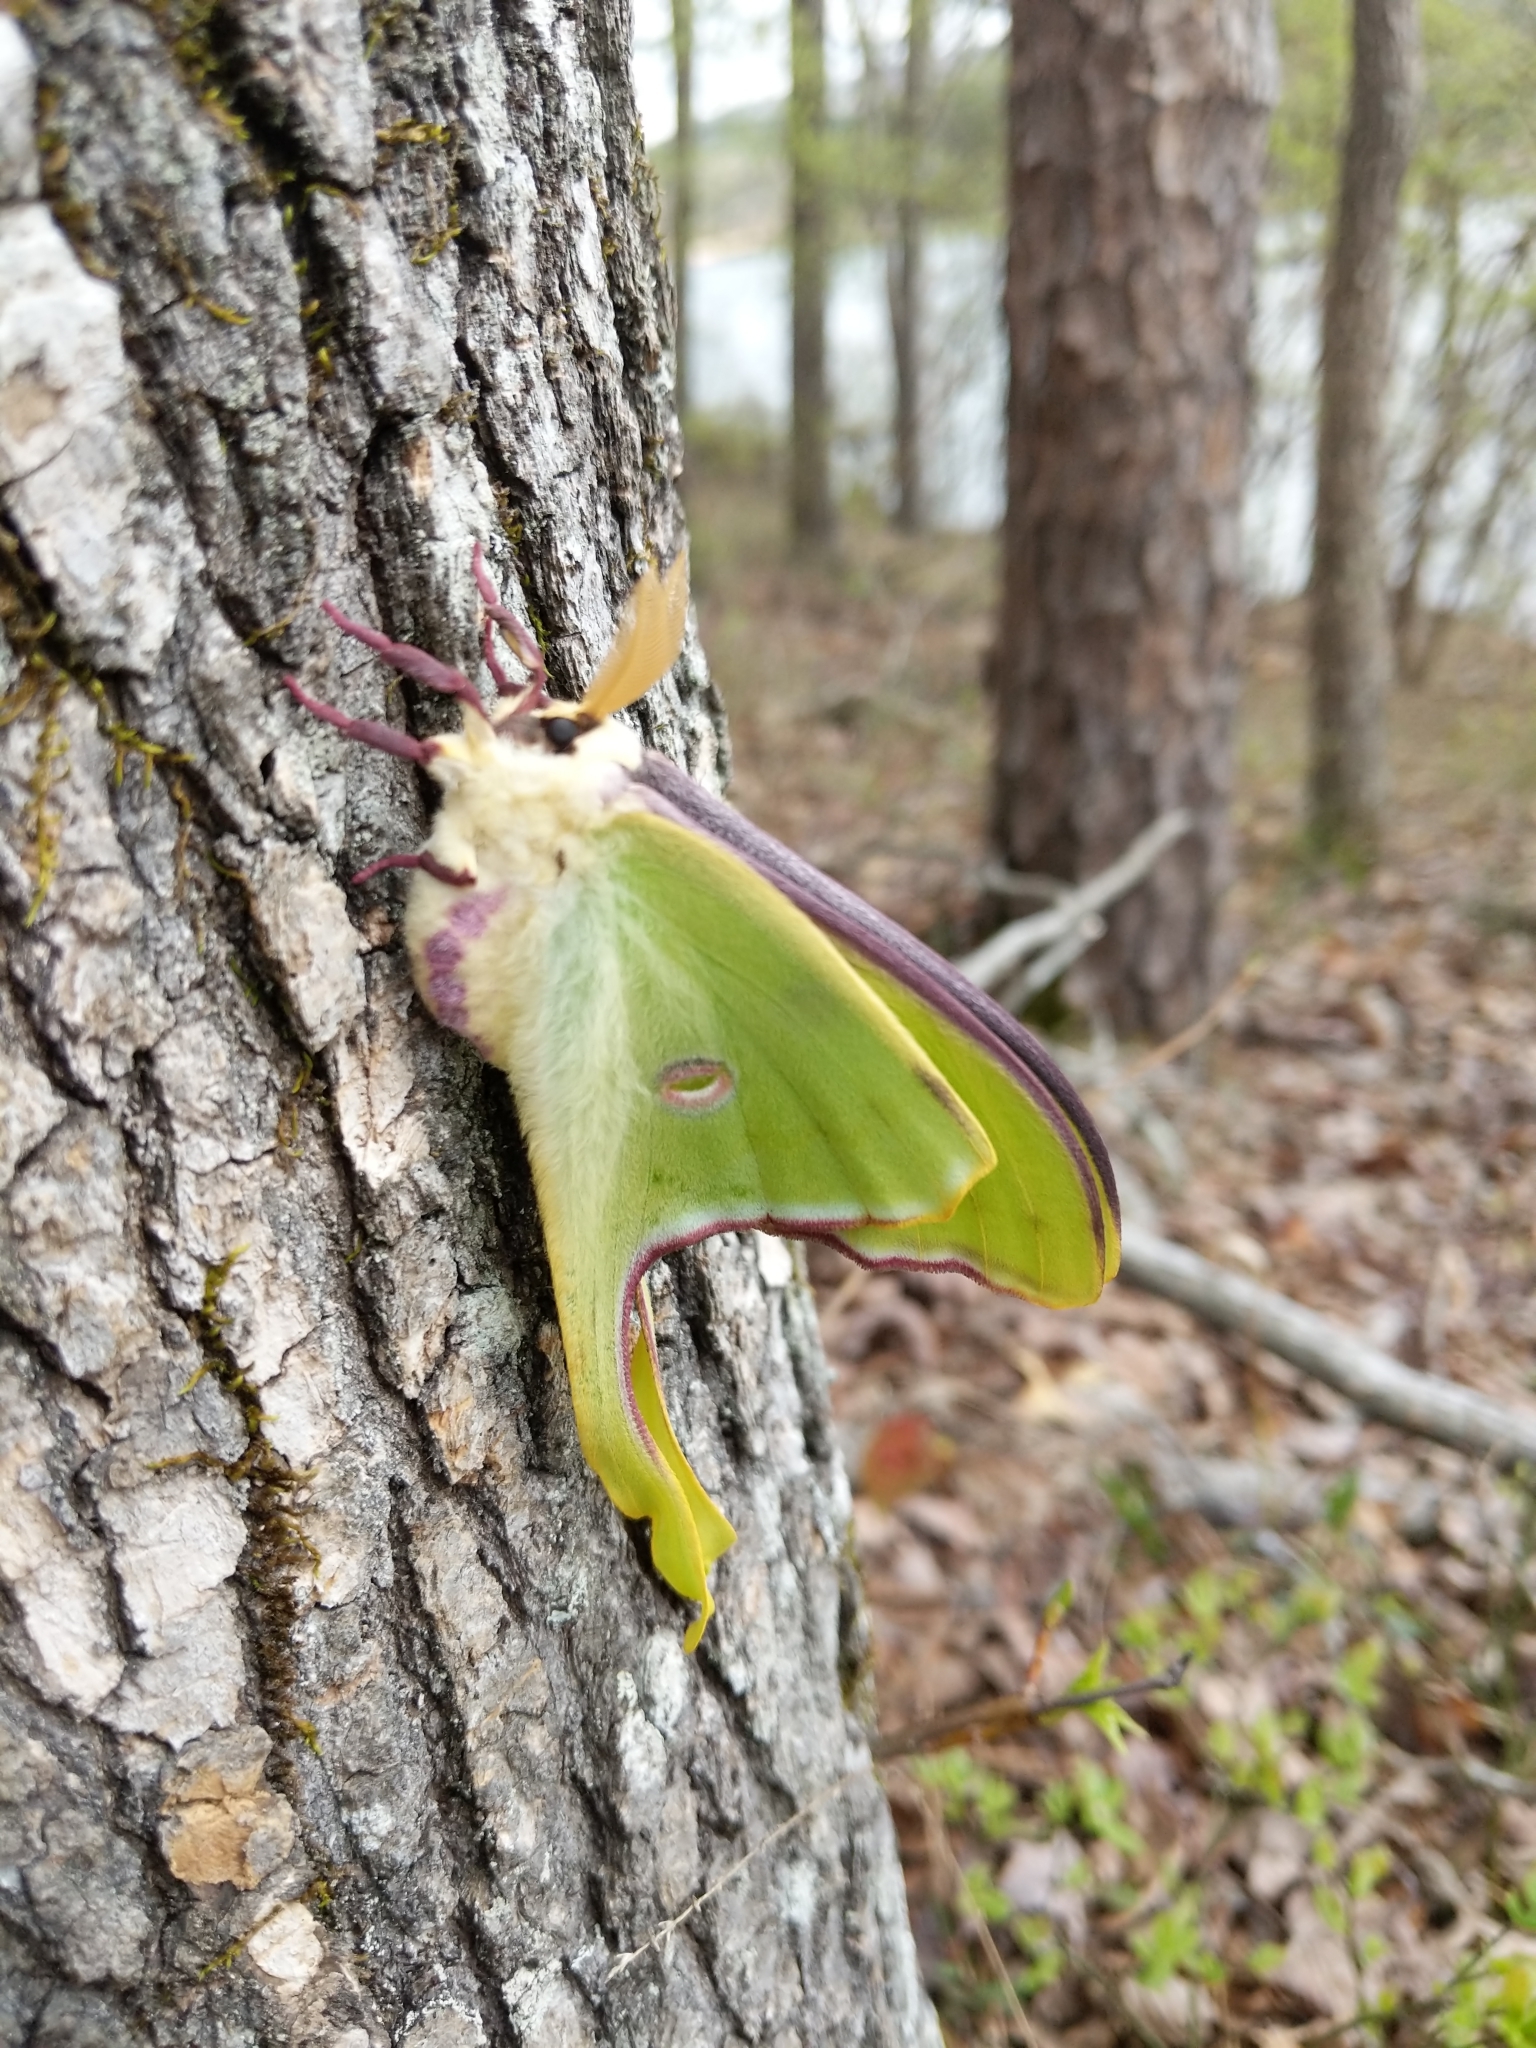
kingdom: Animalia
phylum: Arthropoda
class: Insecta
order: Lepidoptera
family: Saturniidae
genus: Actias
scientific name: Actias luna
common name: Luna moth
